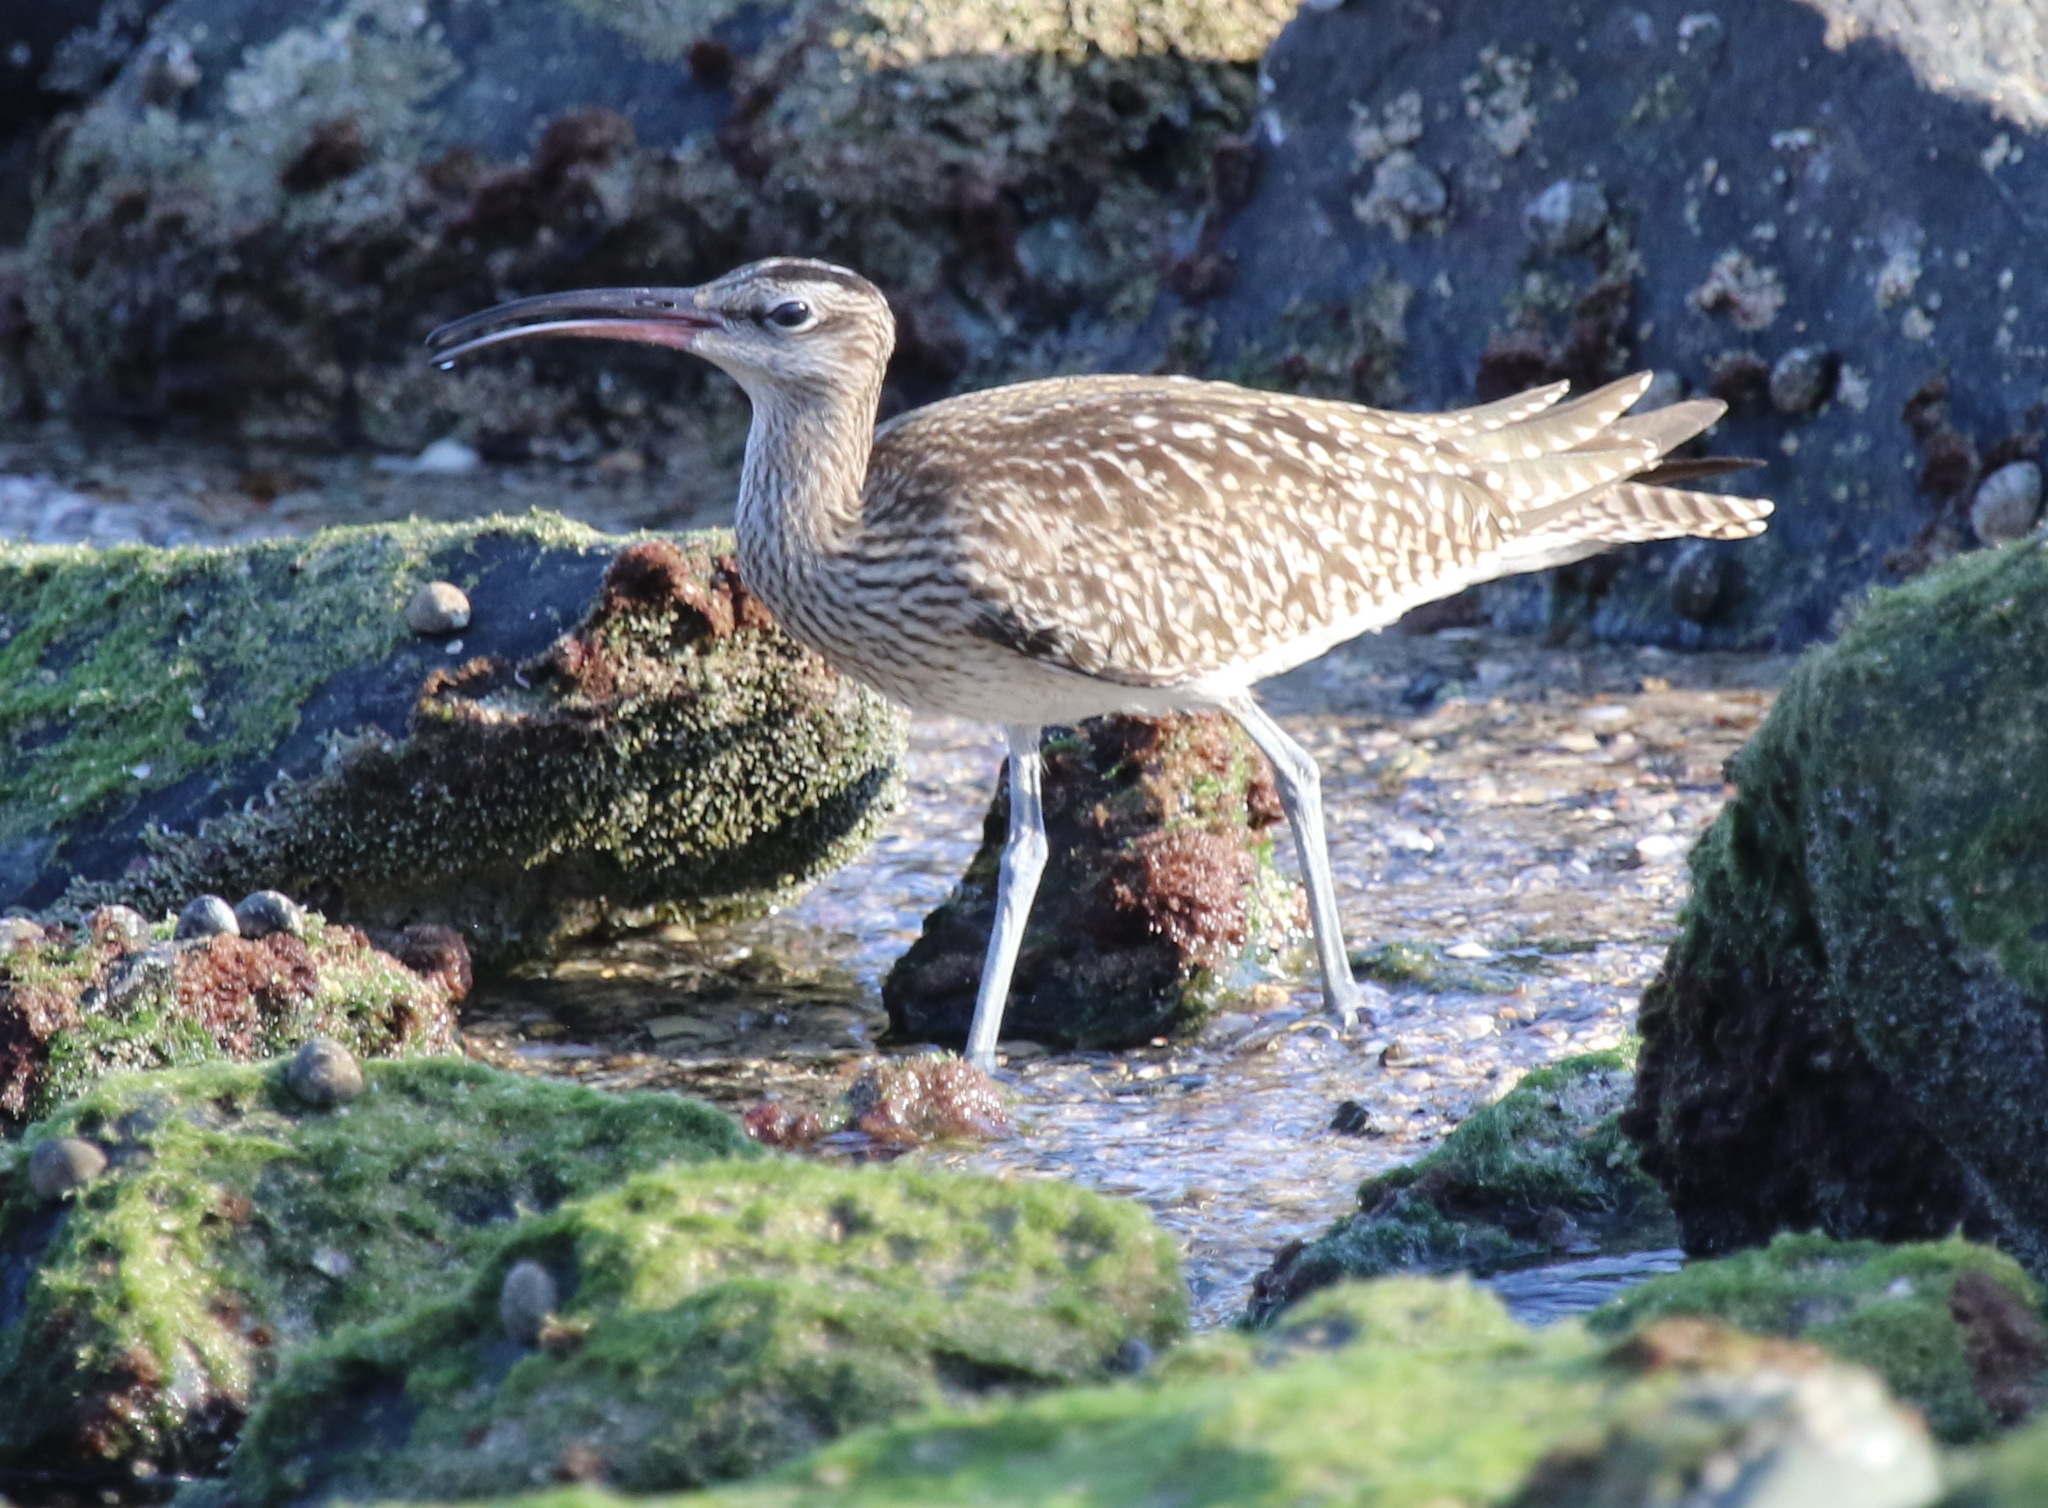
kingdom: Animalia
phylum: Chordata
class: Aves
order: Charadriiformes
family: Scolopacidae
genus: Numenius
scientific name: Numenius phaeopus
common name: Whimbrel
